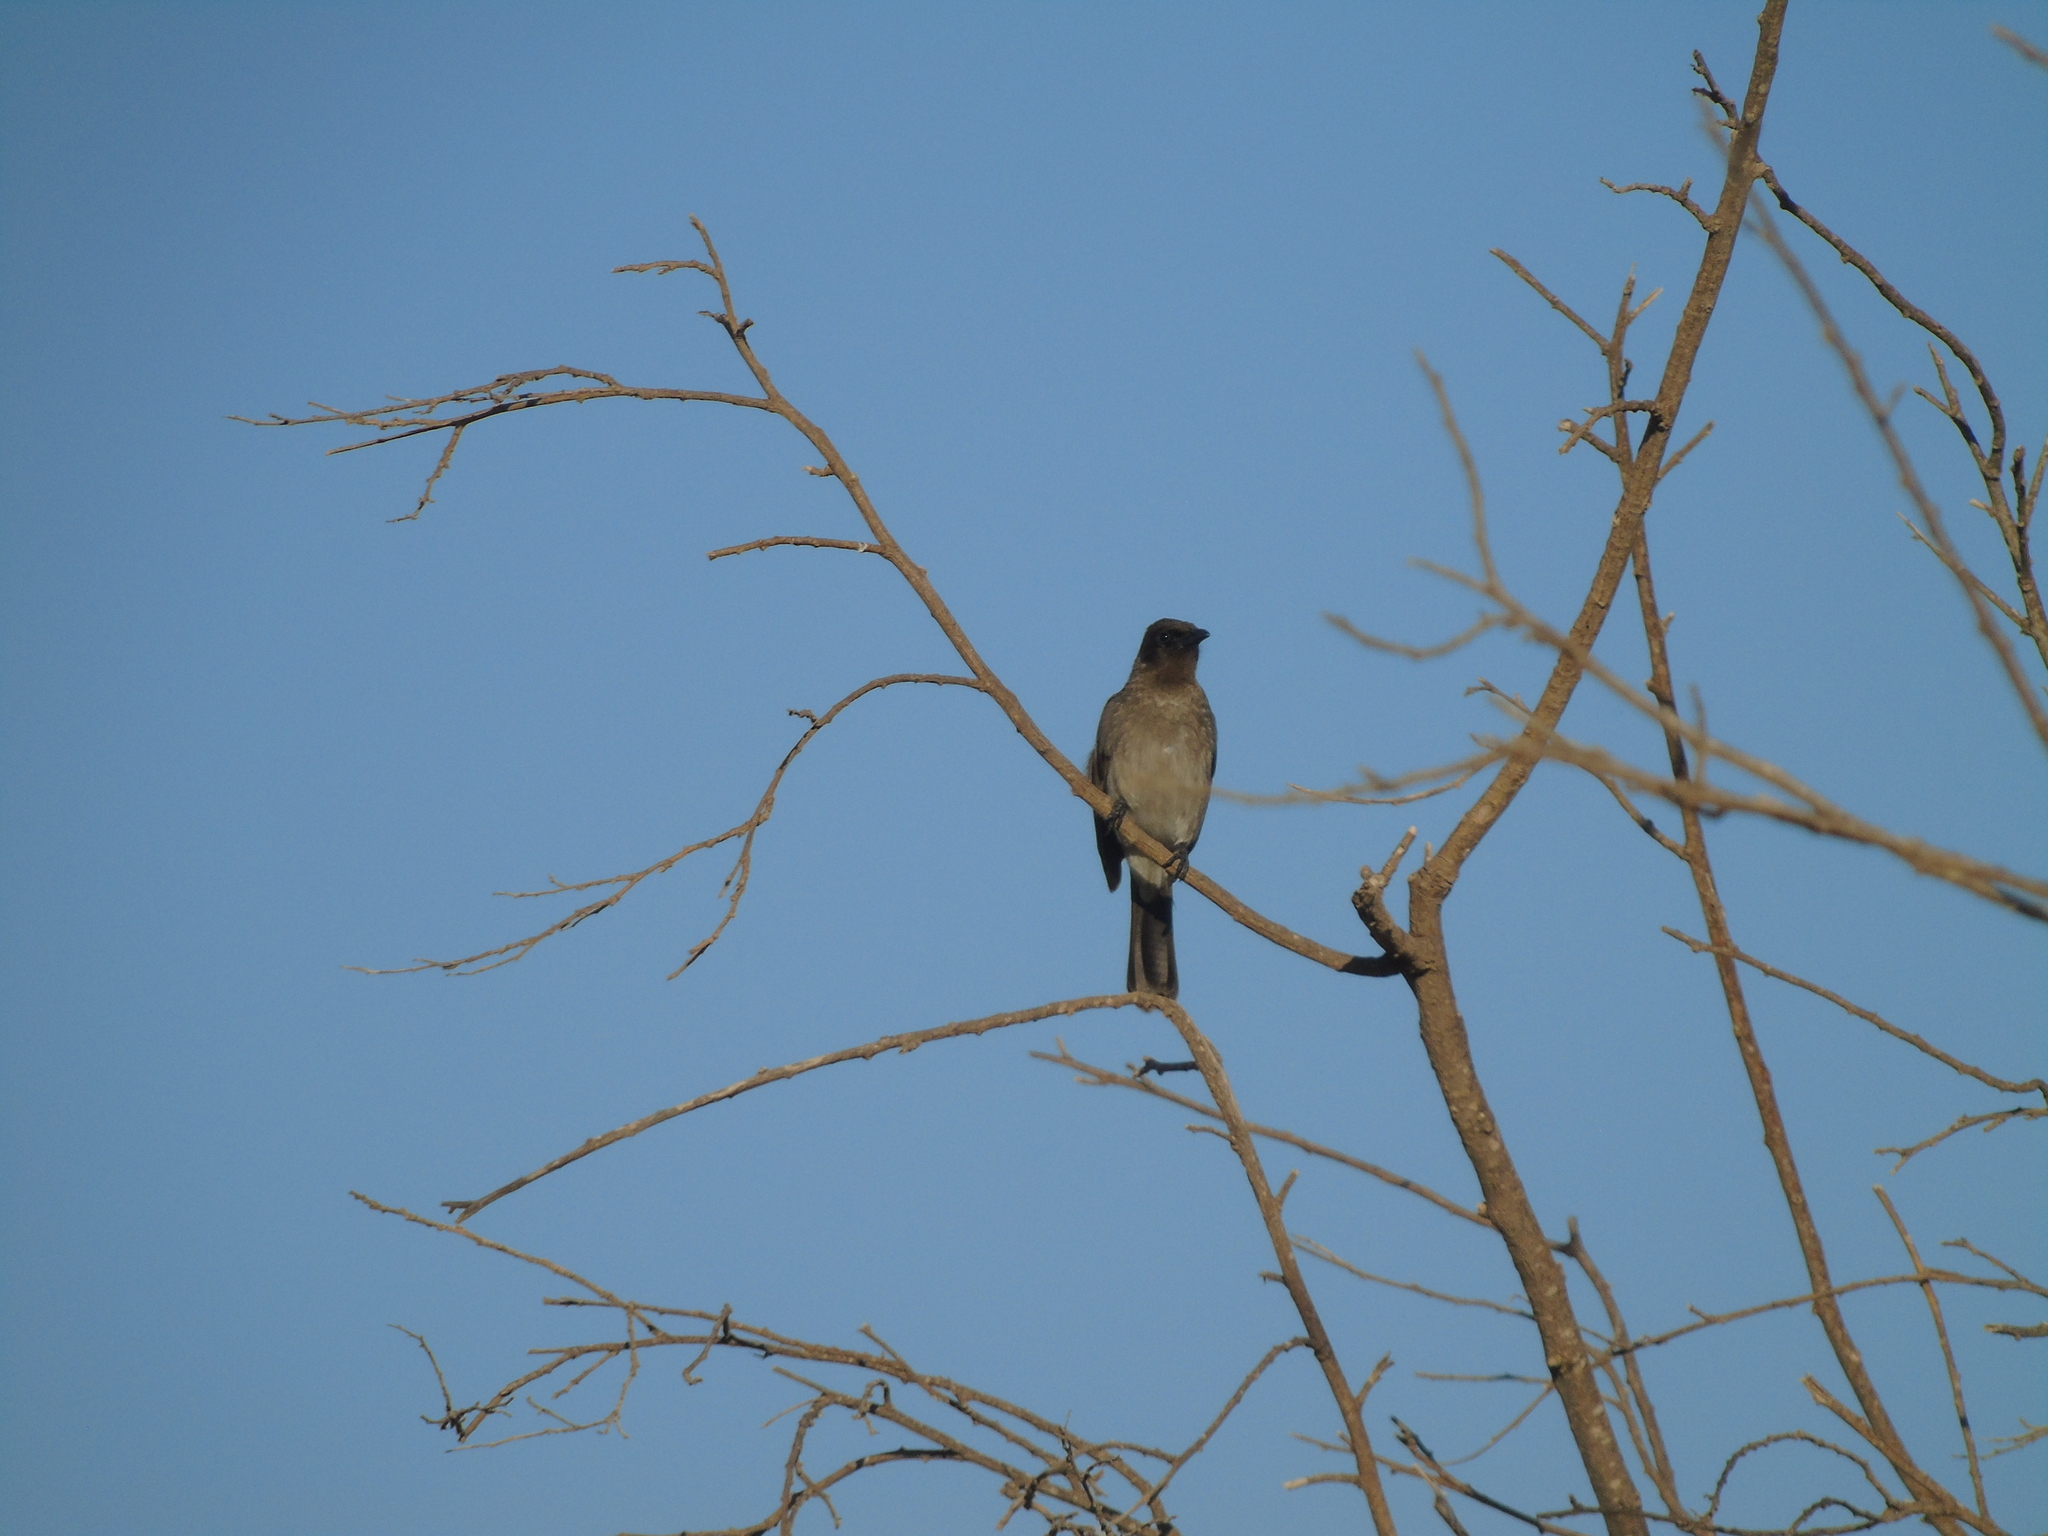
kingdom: Animalia
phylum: Chordata
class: Aves
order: Passeriformes
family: Pycnonotidae
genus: Pycnonotus
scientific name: Pycnonotus barbatus
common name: Common bulbul
